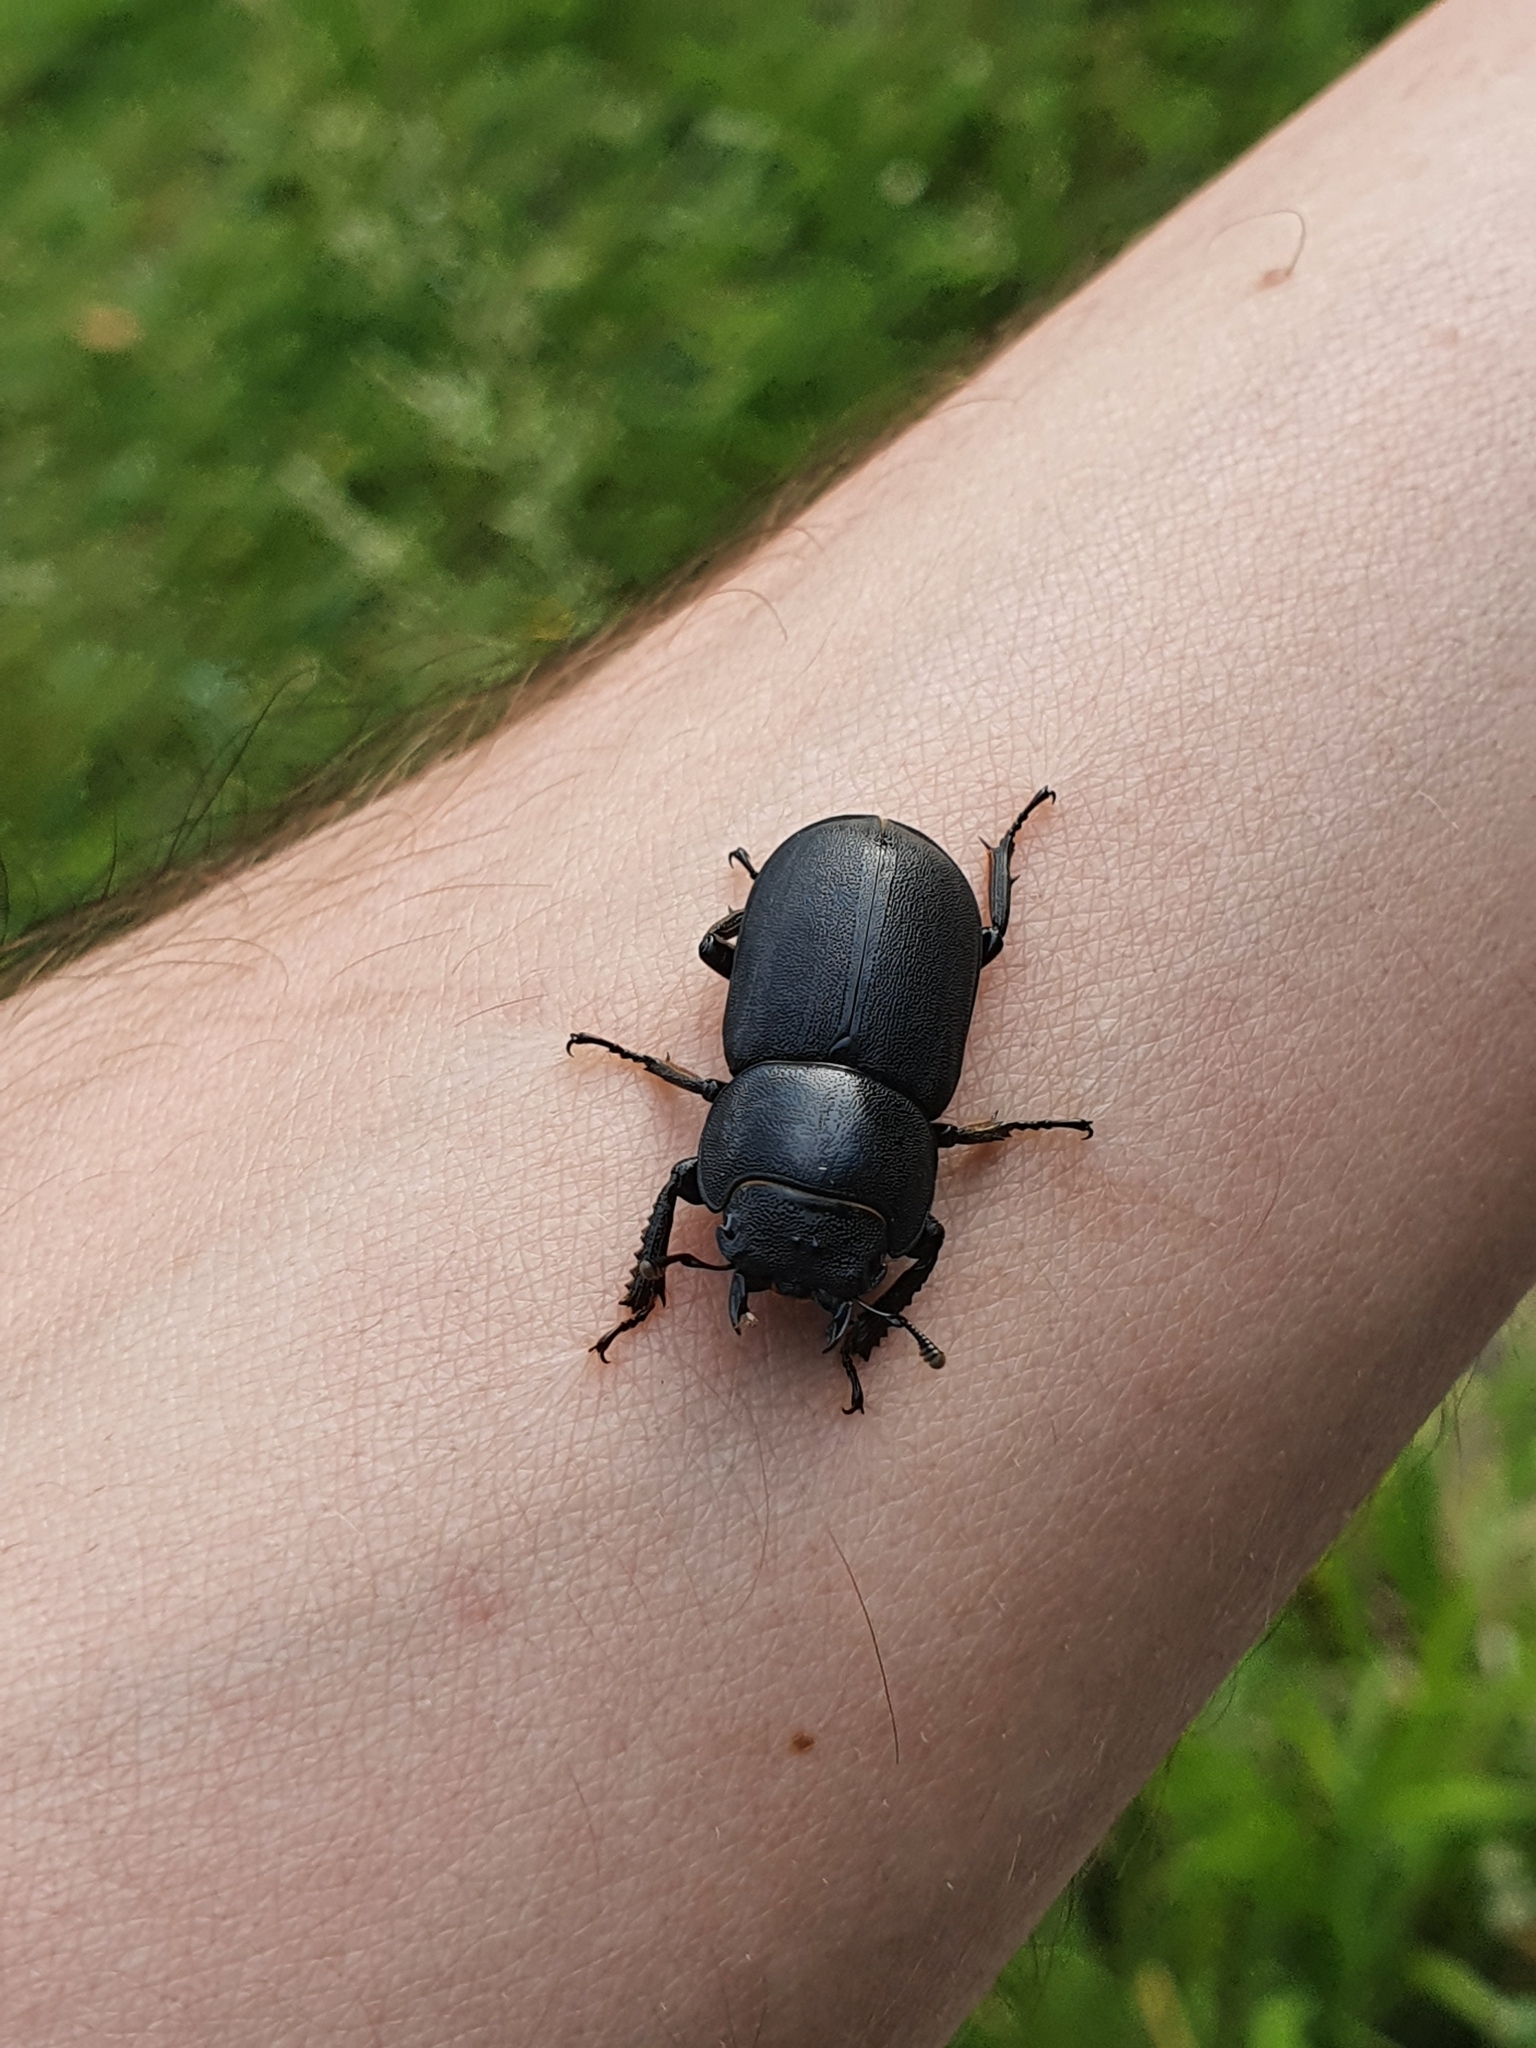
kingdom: Animalia
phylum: Arthropoda
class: Insecta
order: Coleoptera
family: Lucanidae
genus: Dorcus
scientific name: Dorcus parallelipipedus
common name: Lesser stag beetle
